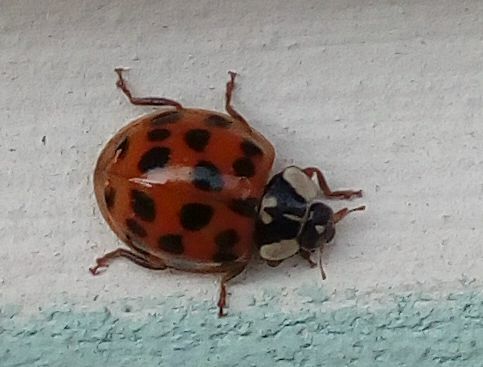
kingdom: Animalia
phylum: Arthropoda
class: Insecta
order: Coleoptera
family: Coccinellidae
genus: Harmonia
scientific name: Harmonia axyridis
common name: Harlequin ladybird
